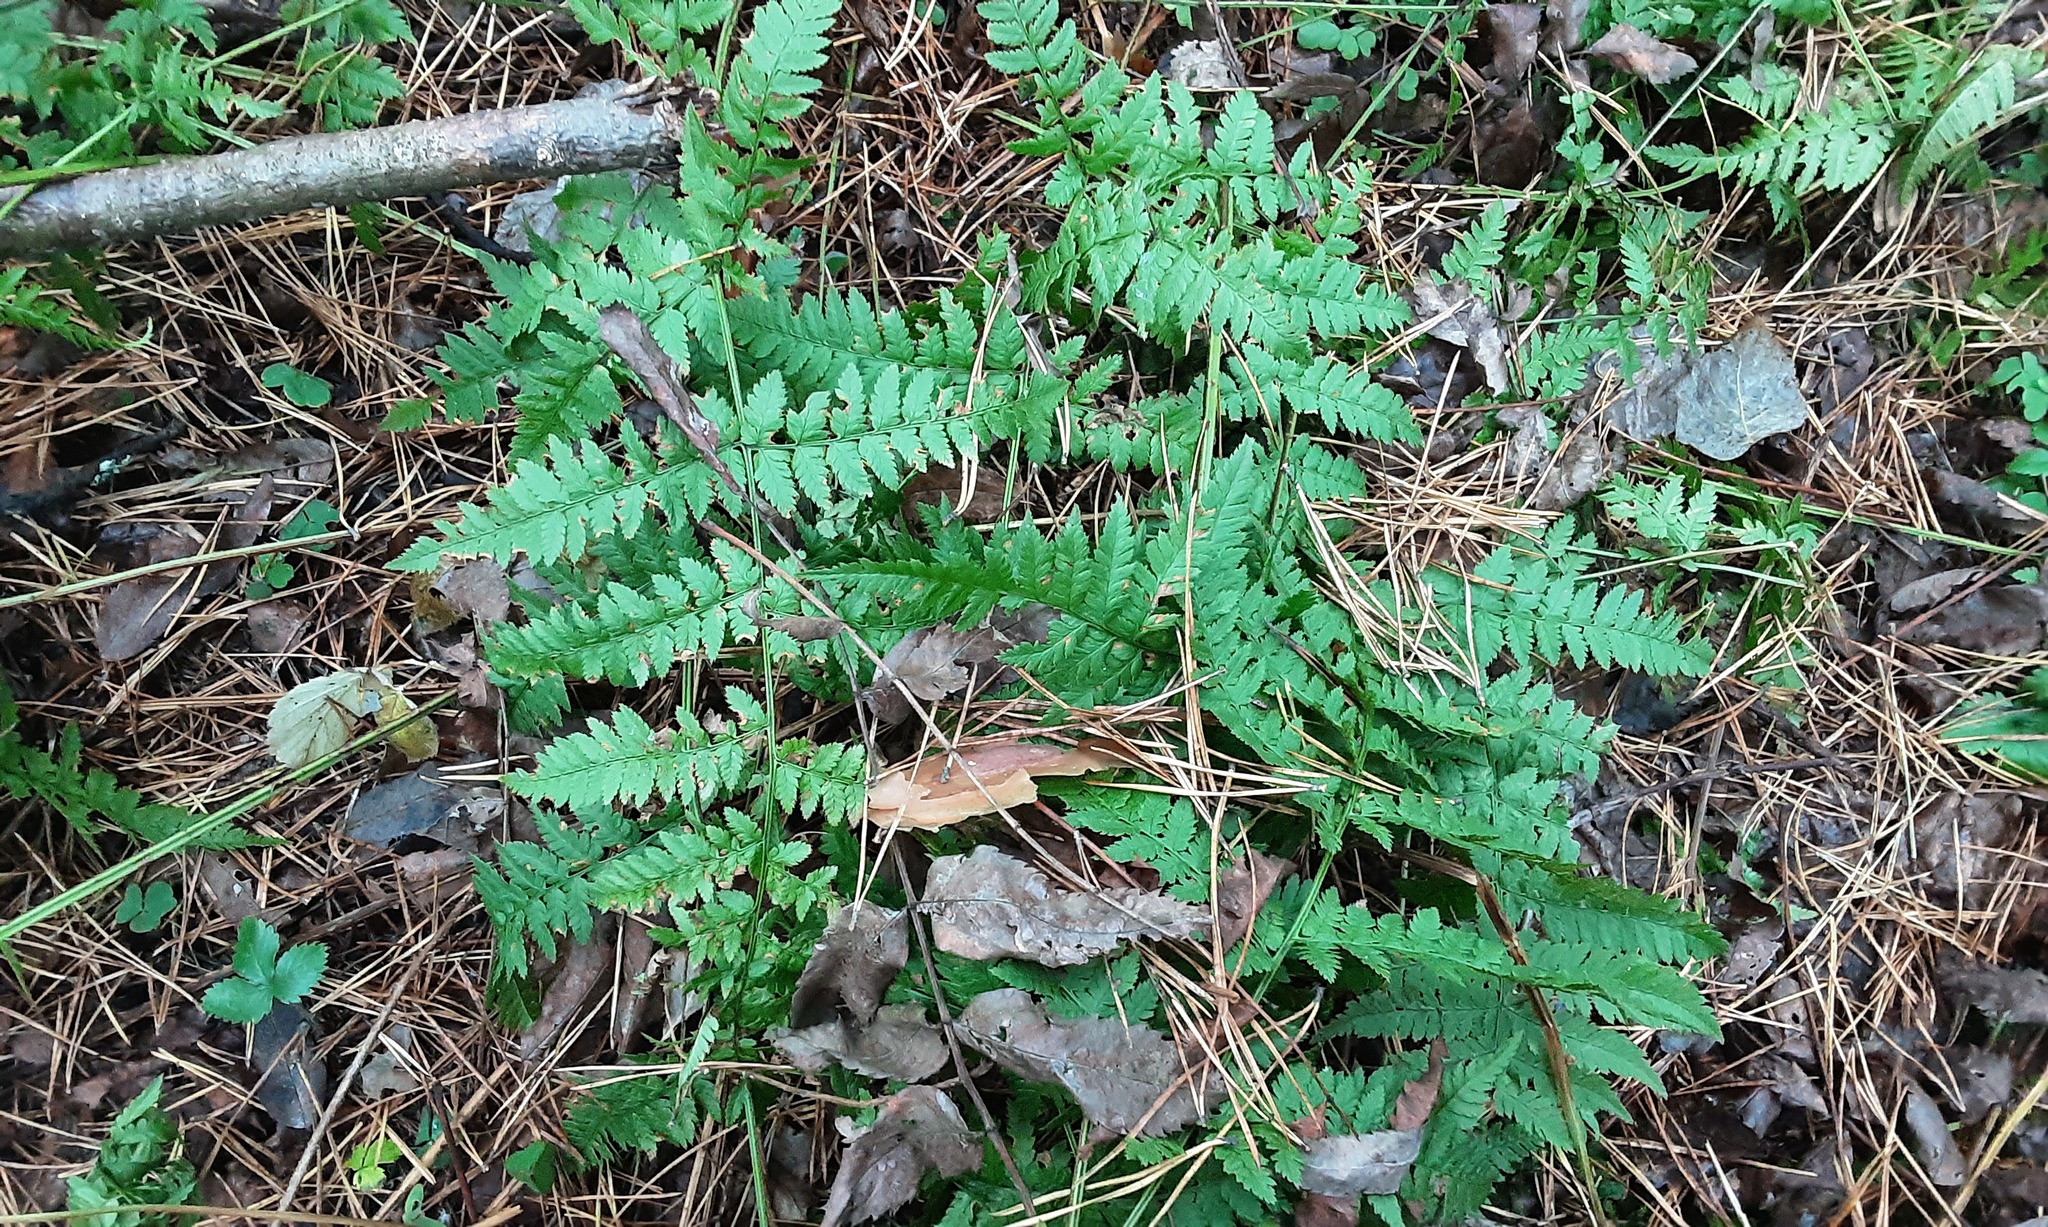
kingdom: Plantae
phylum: Tracheophyta
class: Polypodiopsida
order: Polypodiales
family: Dryopteridaceae
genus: Dryopteris
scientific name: Dryopteris carthusiana
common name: Narrow buckler-fern
